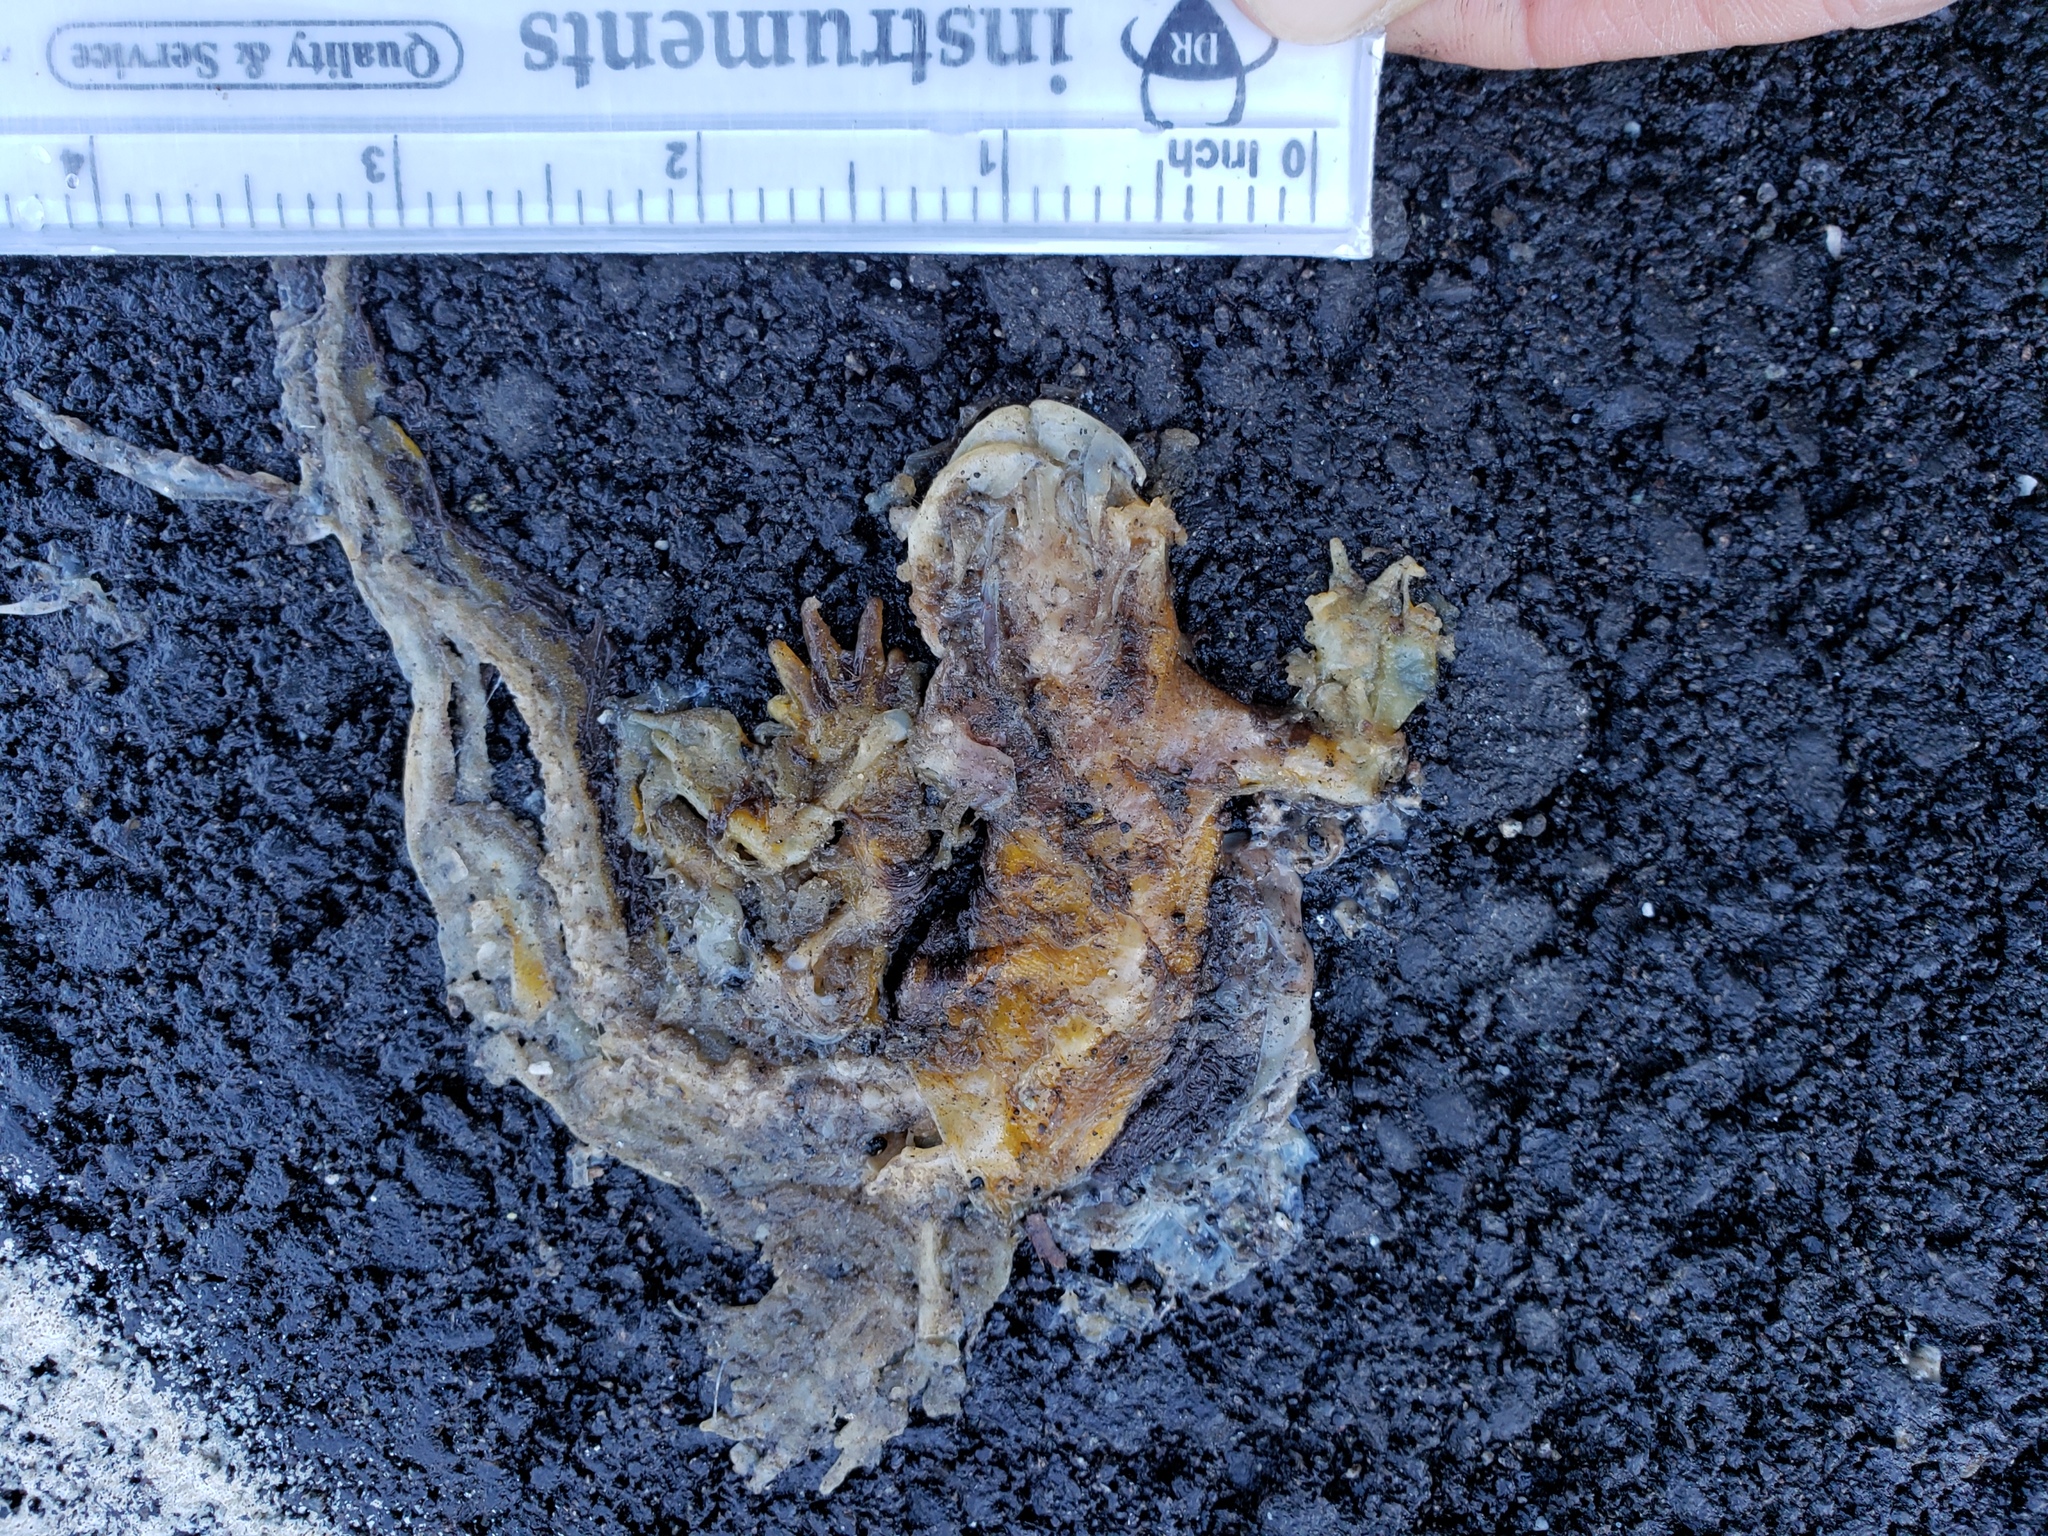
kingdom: Animalia
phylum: Chordata
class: Amphibia
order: Caudata
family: Salamandridae
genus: Taricha
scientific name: Taricha
